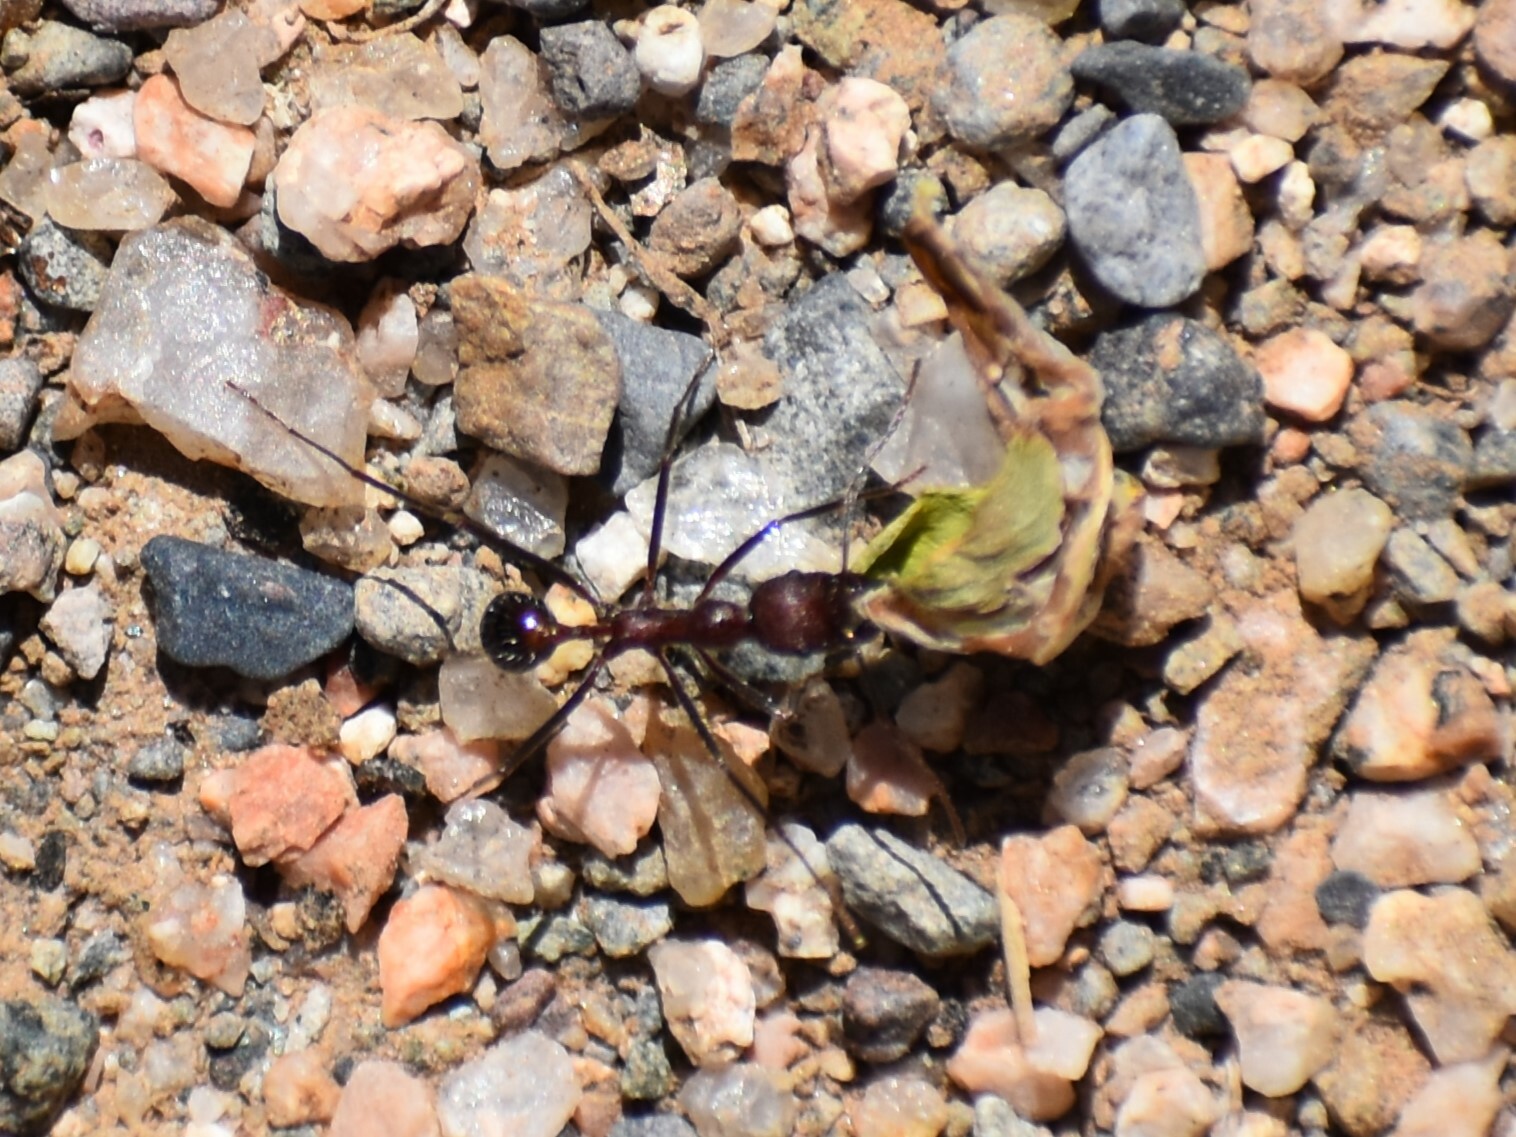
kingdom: Animalia
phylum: Arthropoda
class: Insecta
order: Hymenoptera
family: Formicidae
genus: Novomessor
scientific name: Novomessor albisetosa
